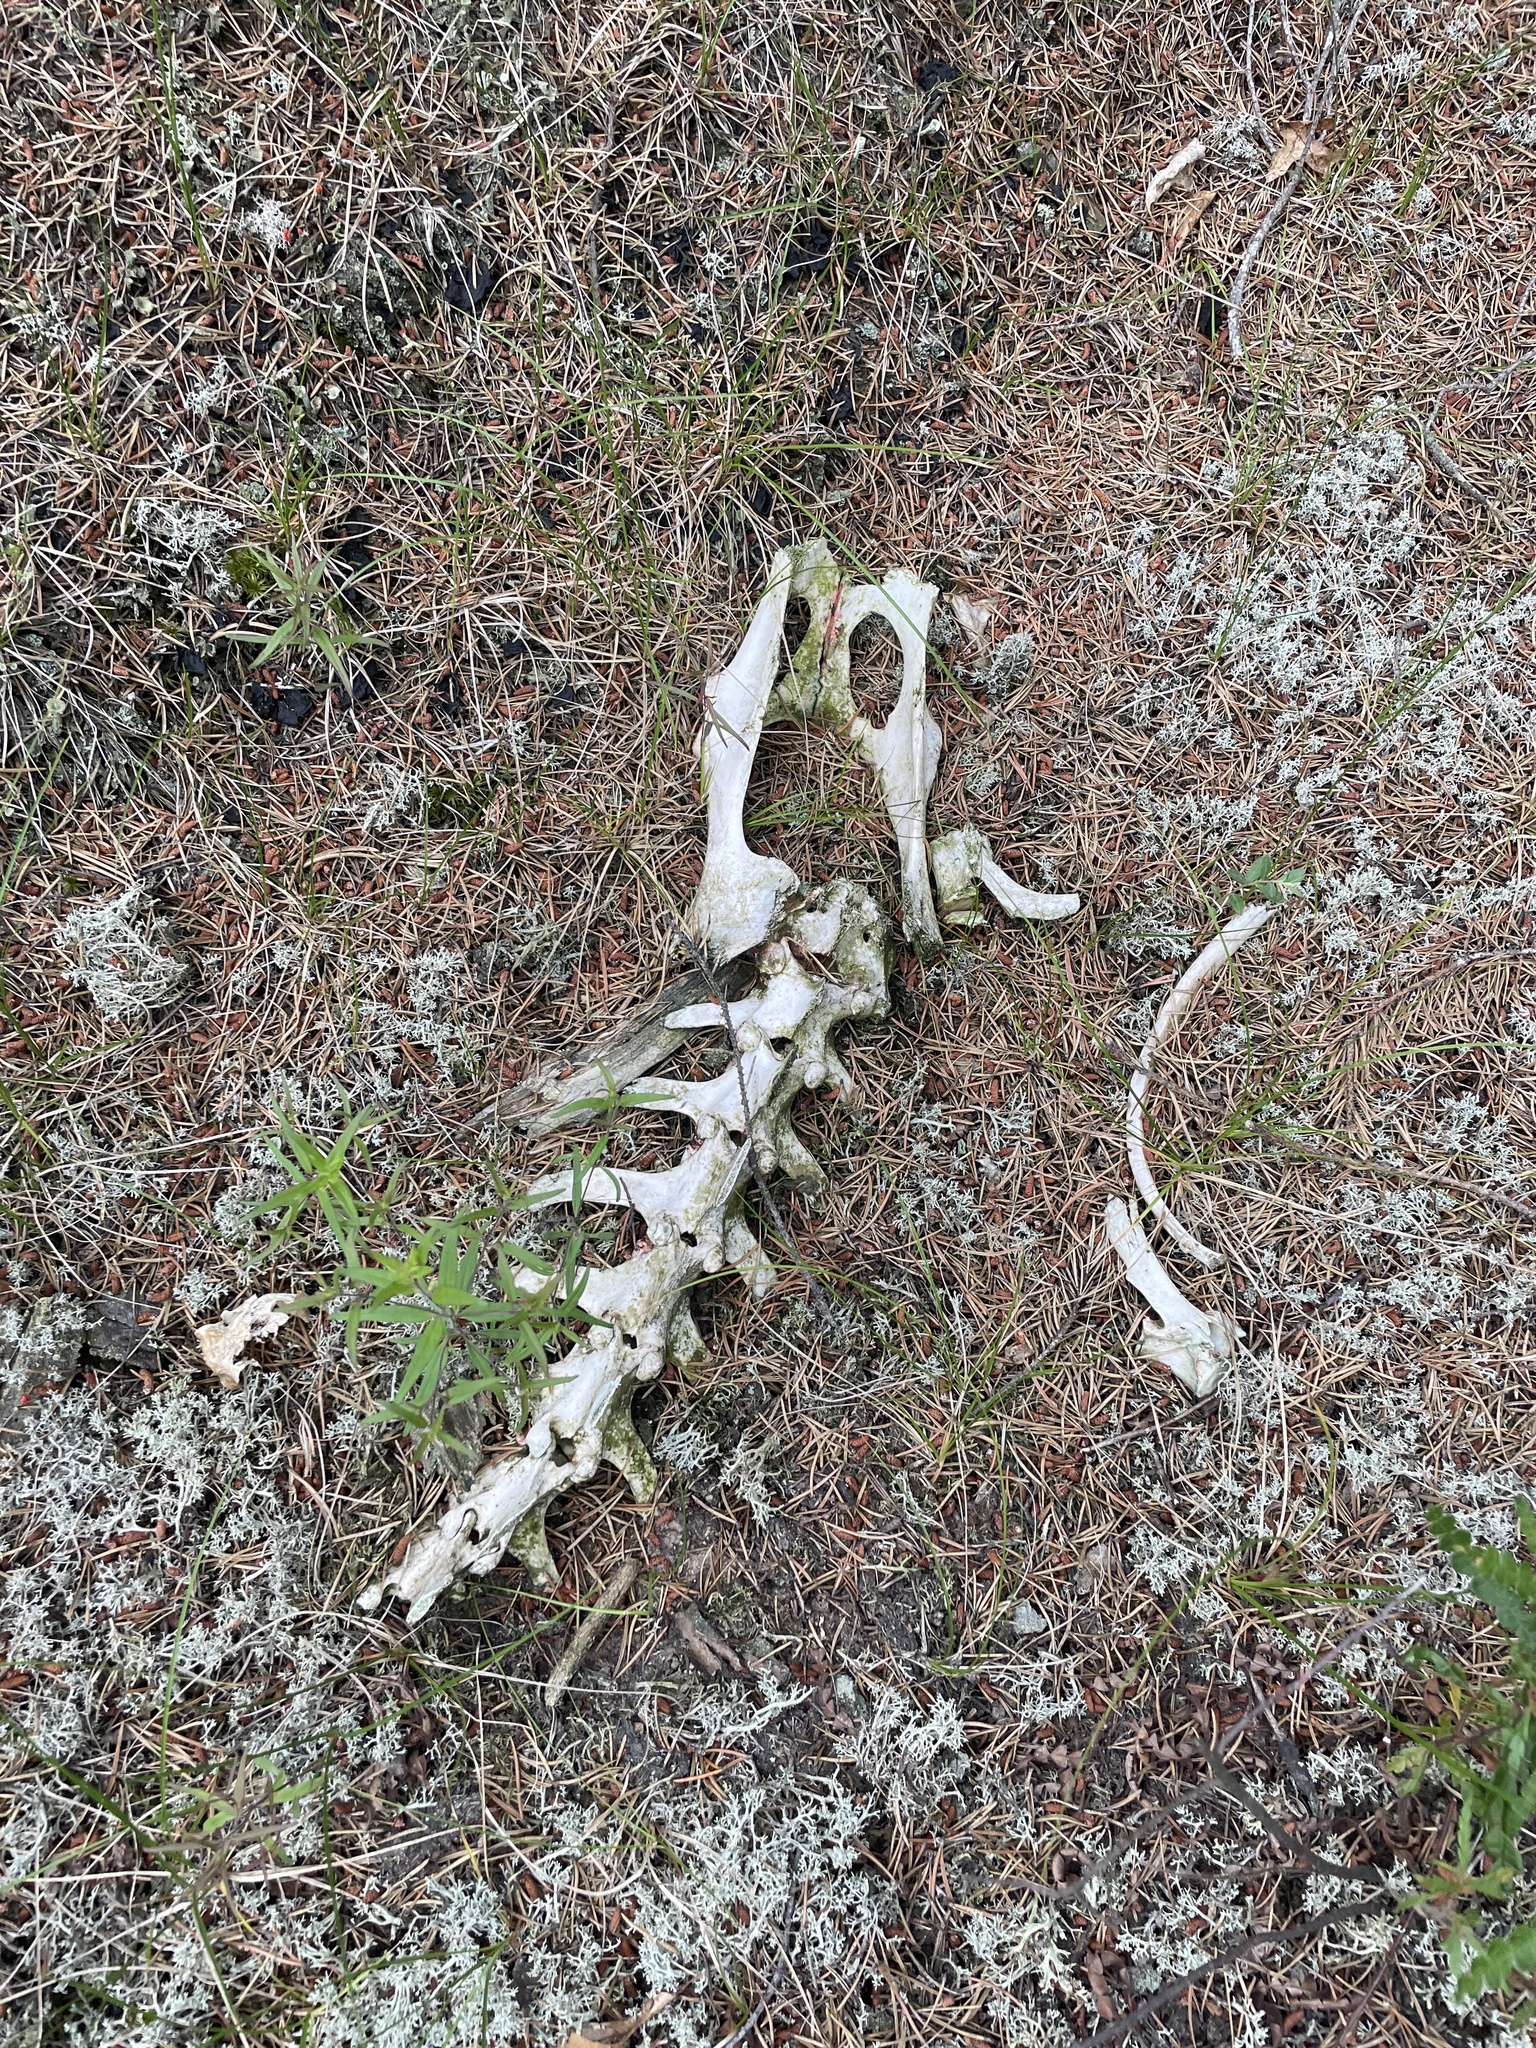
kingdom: Animalia
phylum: Chordata
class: Mammalia
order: Artiodactyla
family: Cervidae
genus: Odocoileus
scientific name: Odocoileus virginianus
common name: White-tailed deer
